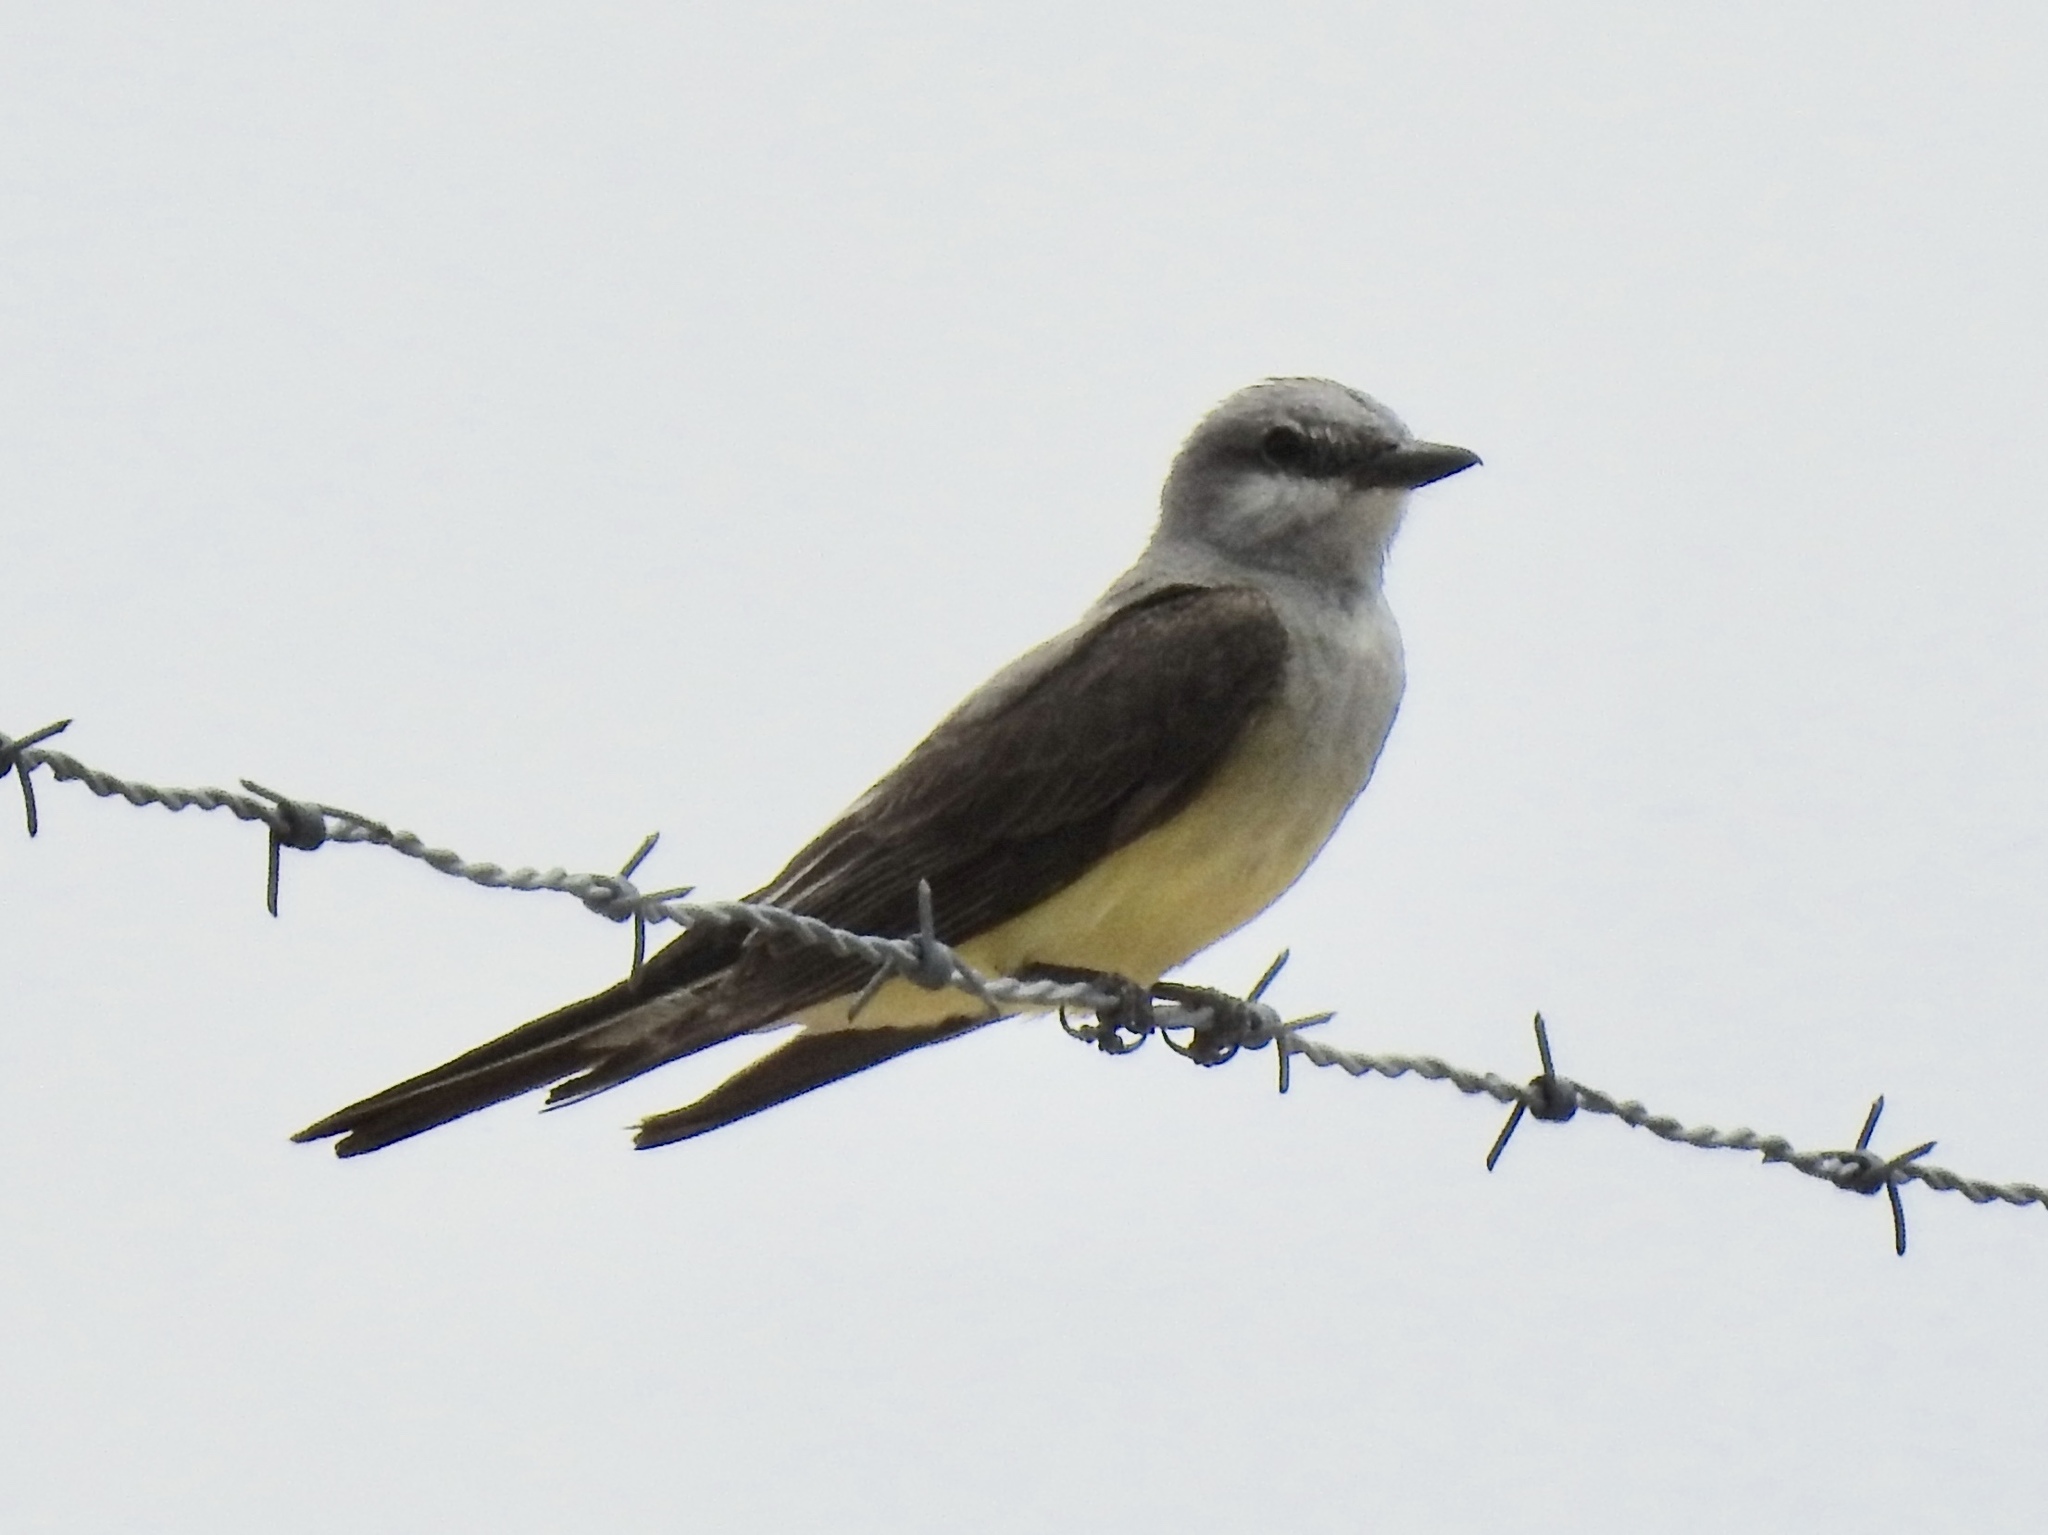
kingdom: Animalia
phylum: Chordata
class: Aves
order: Passeriformes
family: Tyrannidae
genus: Tyrannus
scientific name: Tyrannus verticalis
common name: Western kingbird
